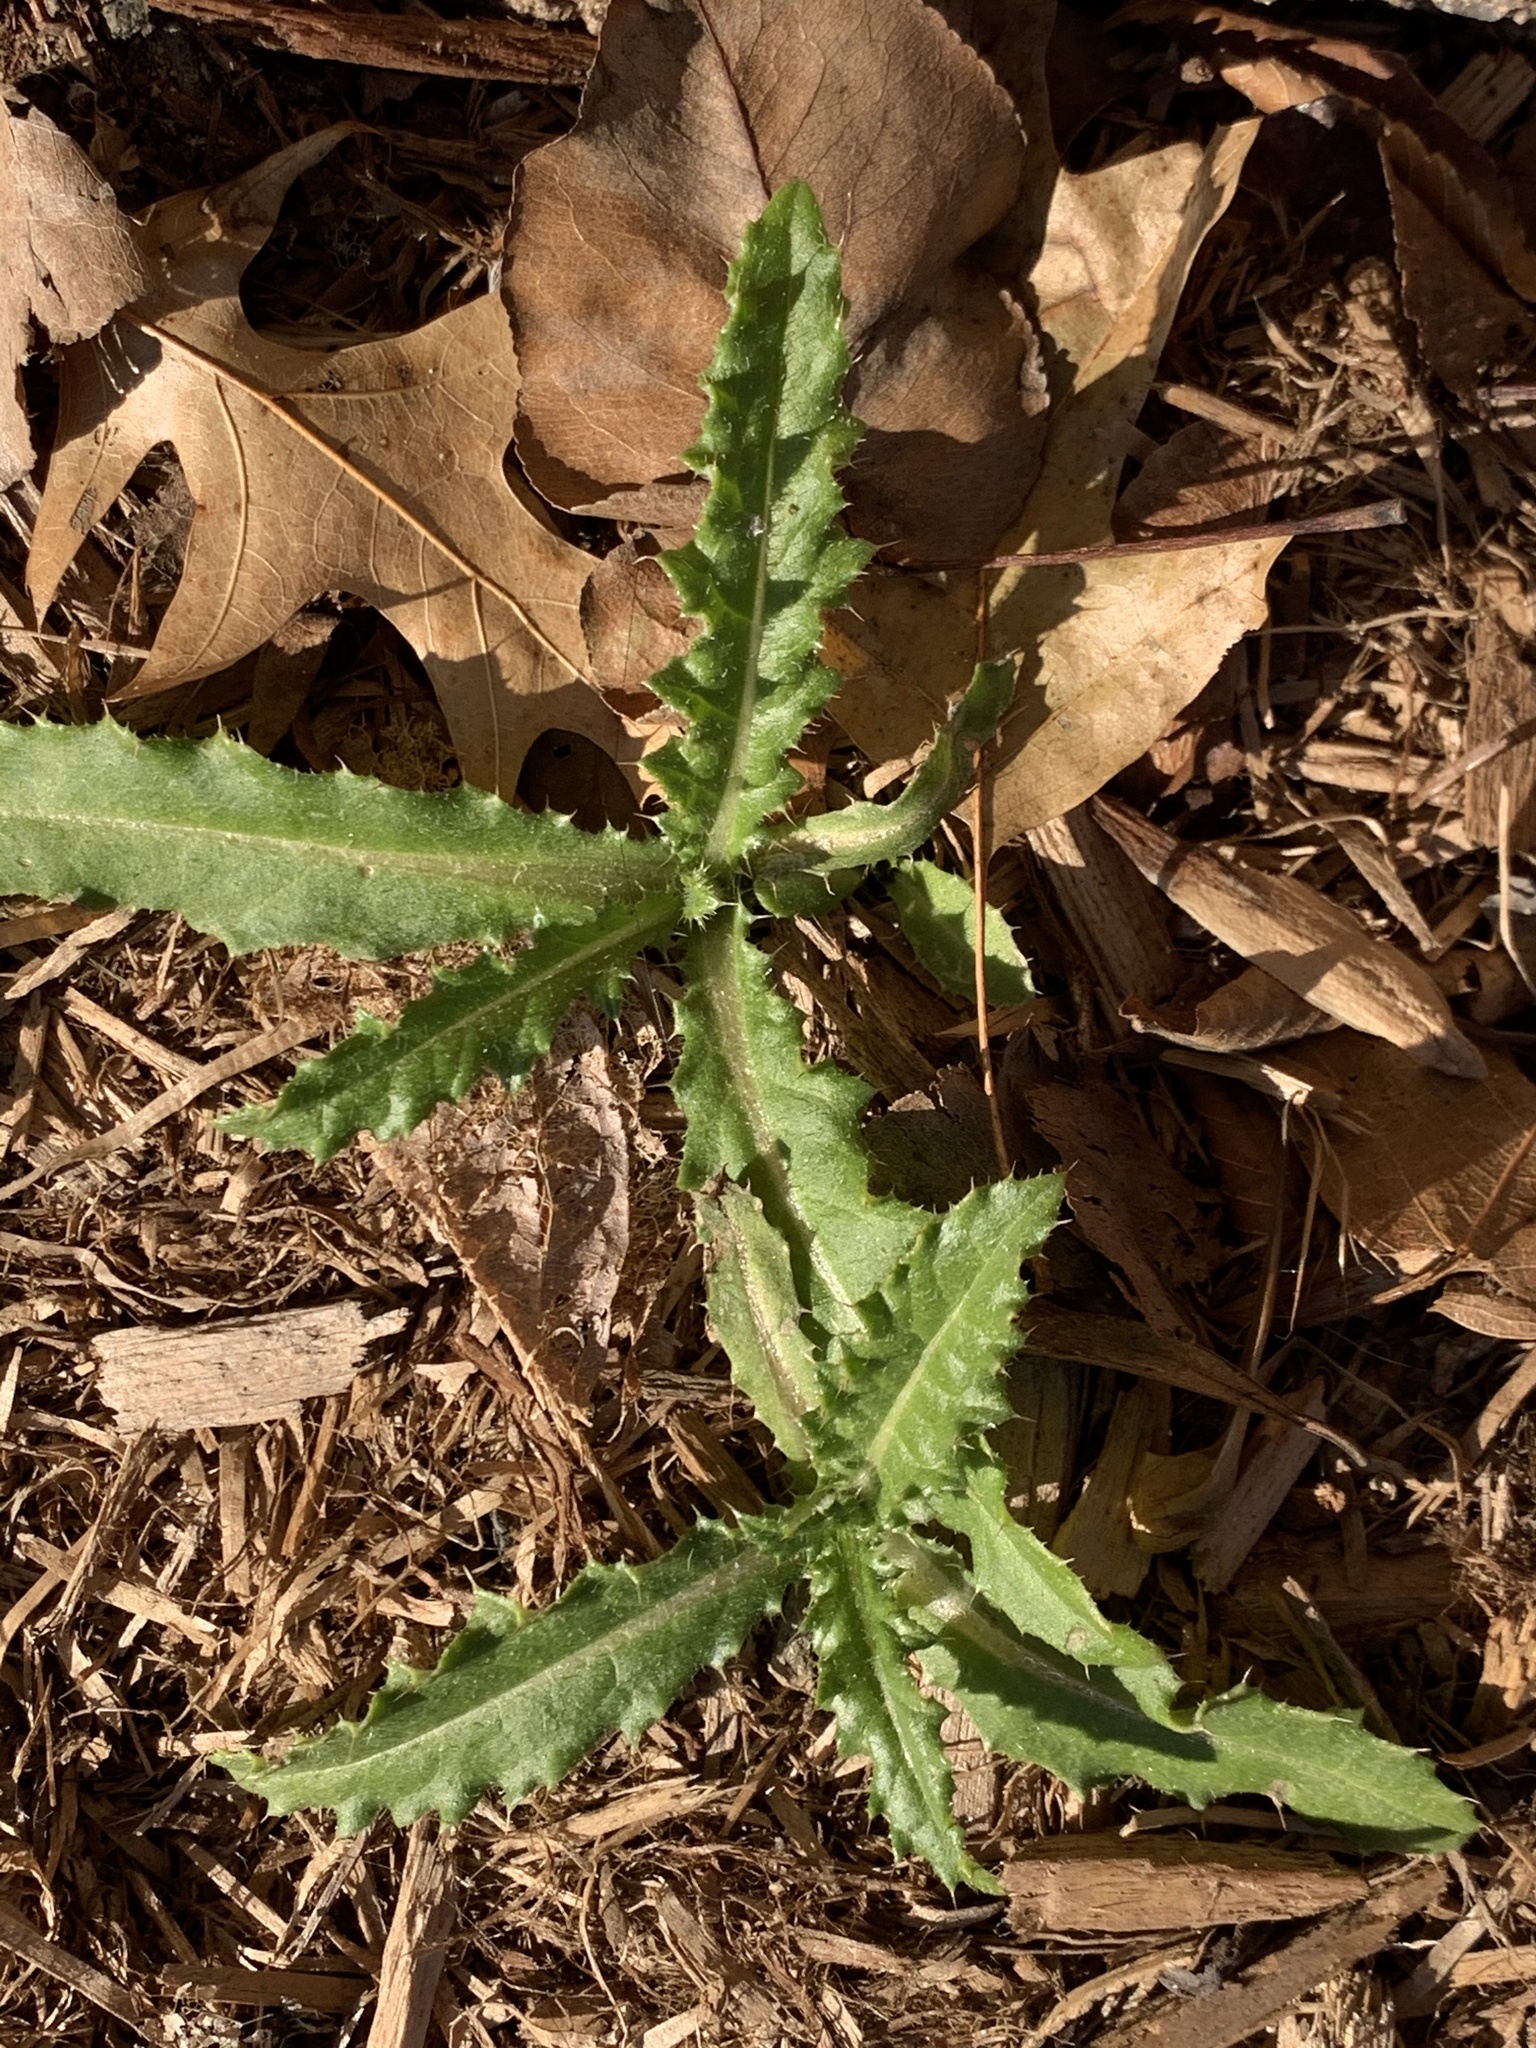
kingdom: Plantae
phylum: Tracheophyta
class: Magnoliopsida
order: Asterales
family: Asteraceae
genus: Cirsium
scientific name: Cirsium arvense
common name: Creeping thistle
